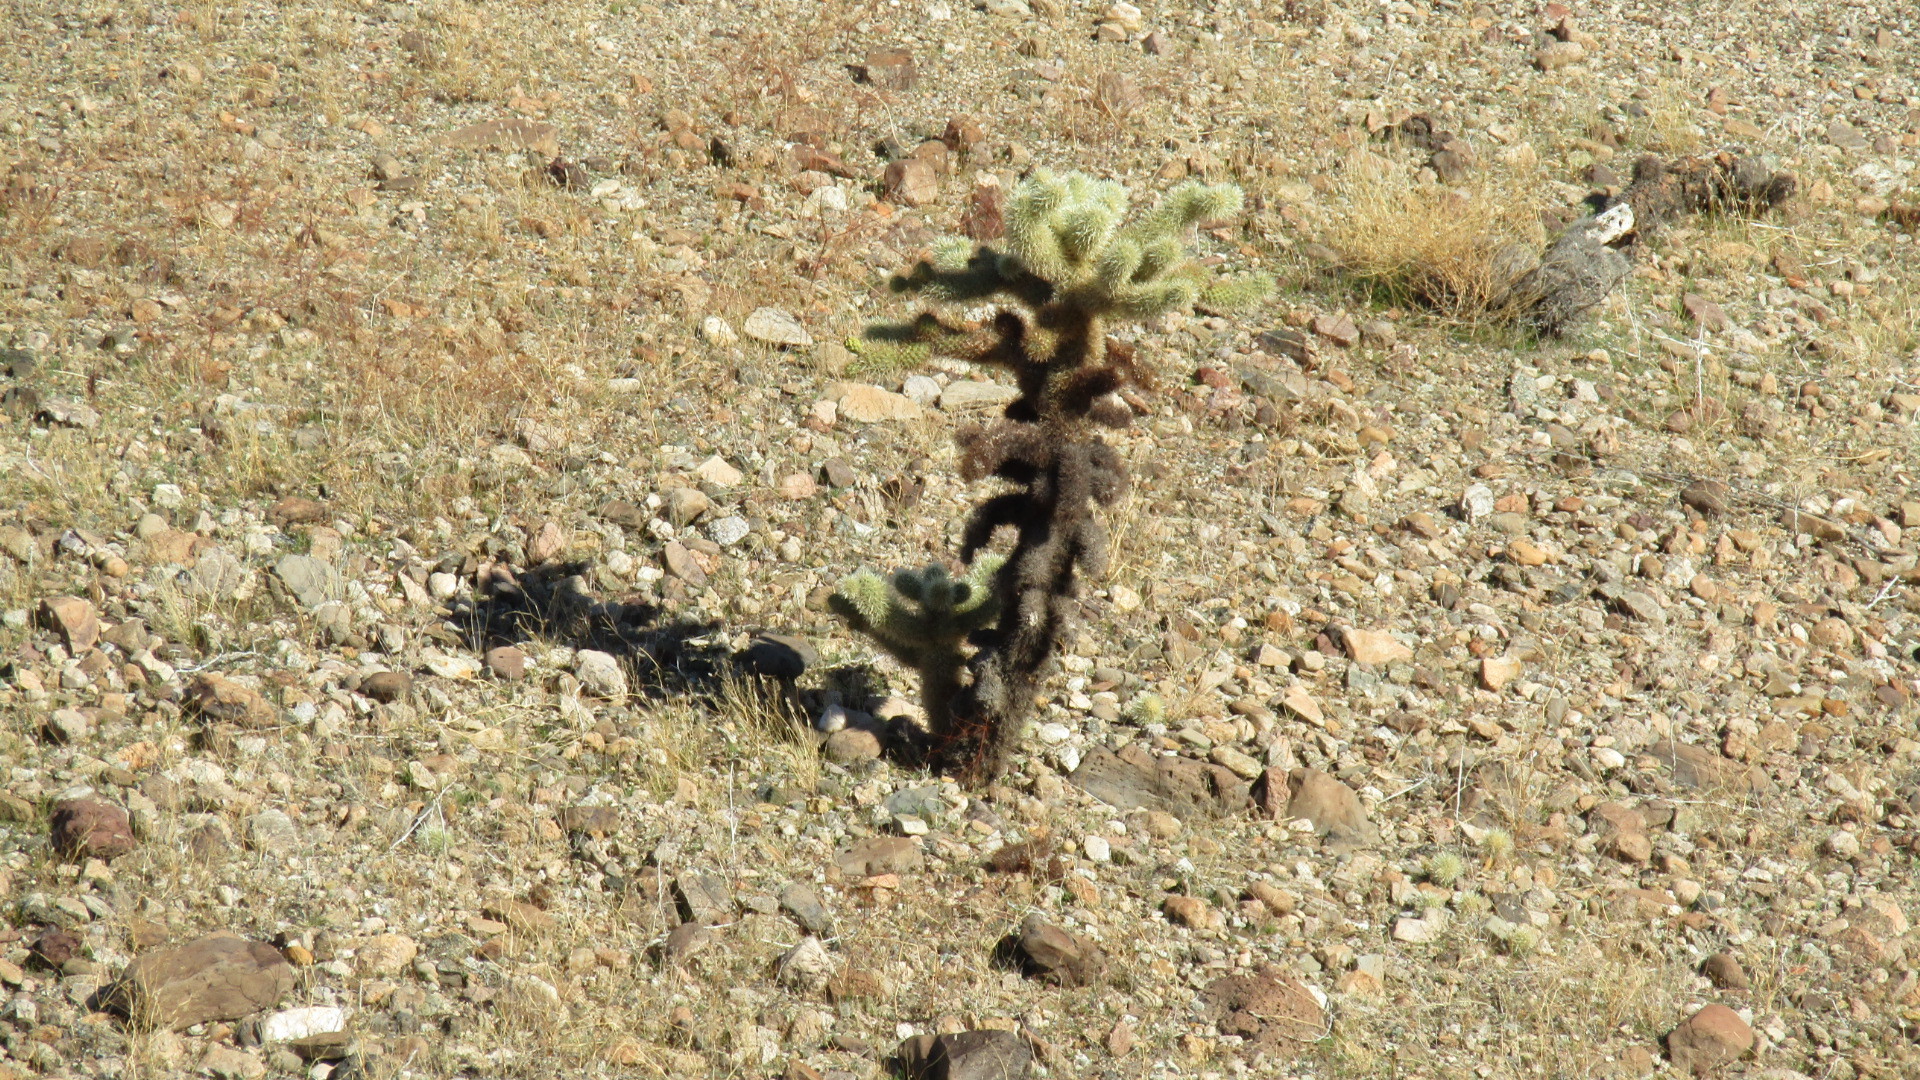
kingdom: Plantae
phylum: Tracheophyta
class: Magnoliopsida
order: Caryophyllales
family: Cactaceae
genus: Cylindropuntia
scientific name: Cylindropuntia fosbergii
